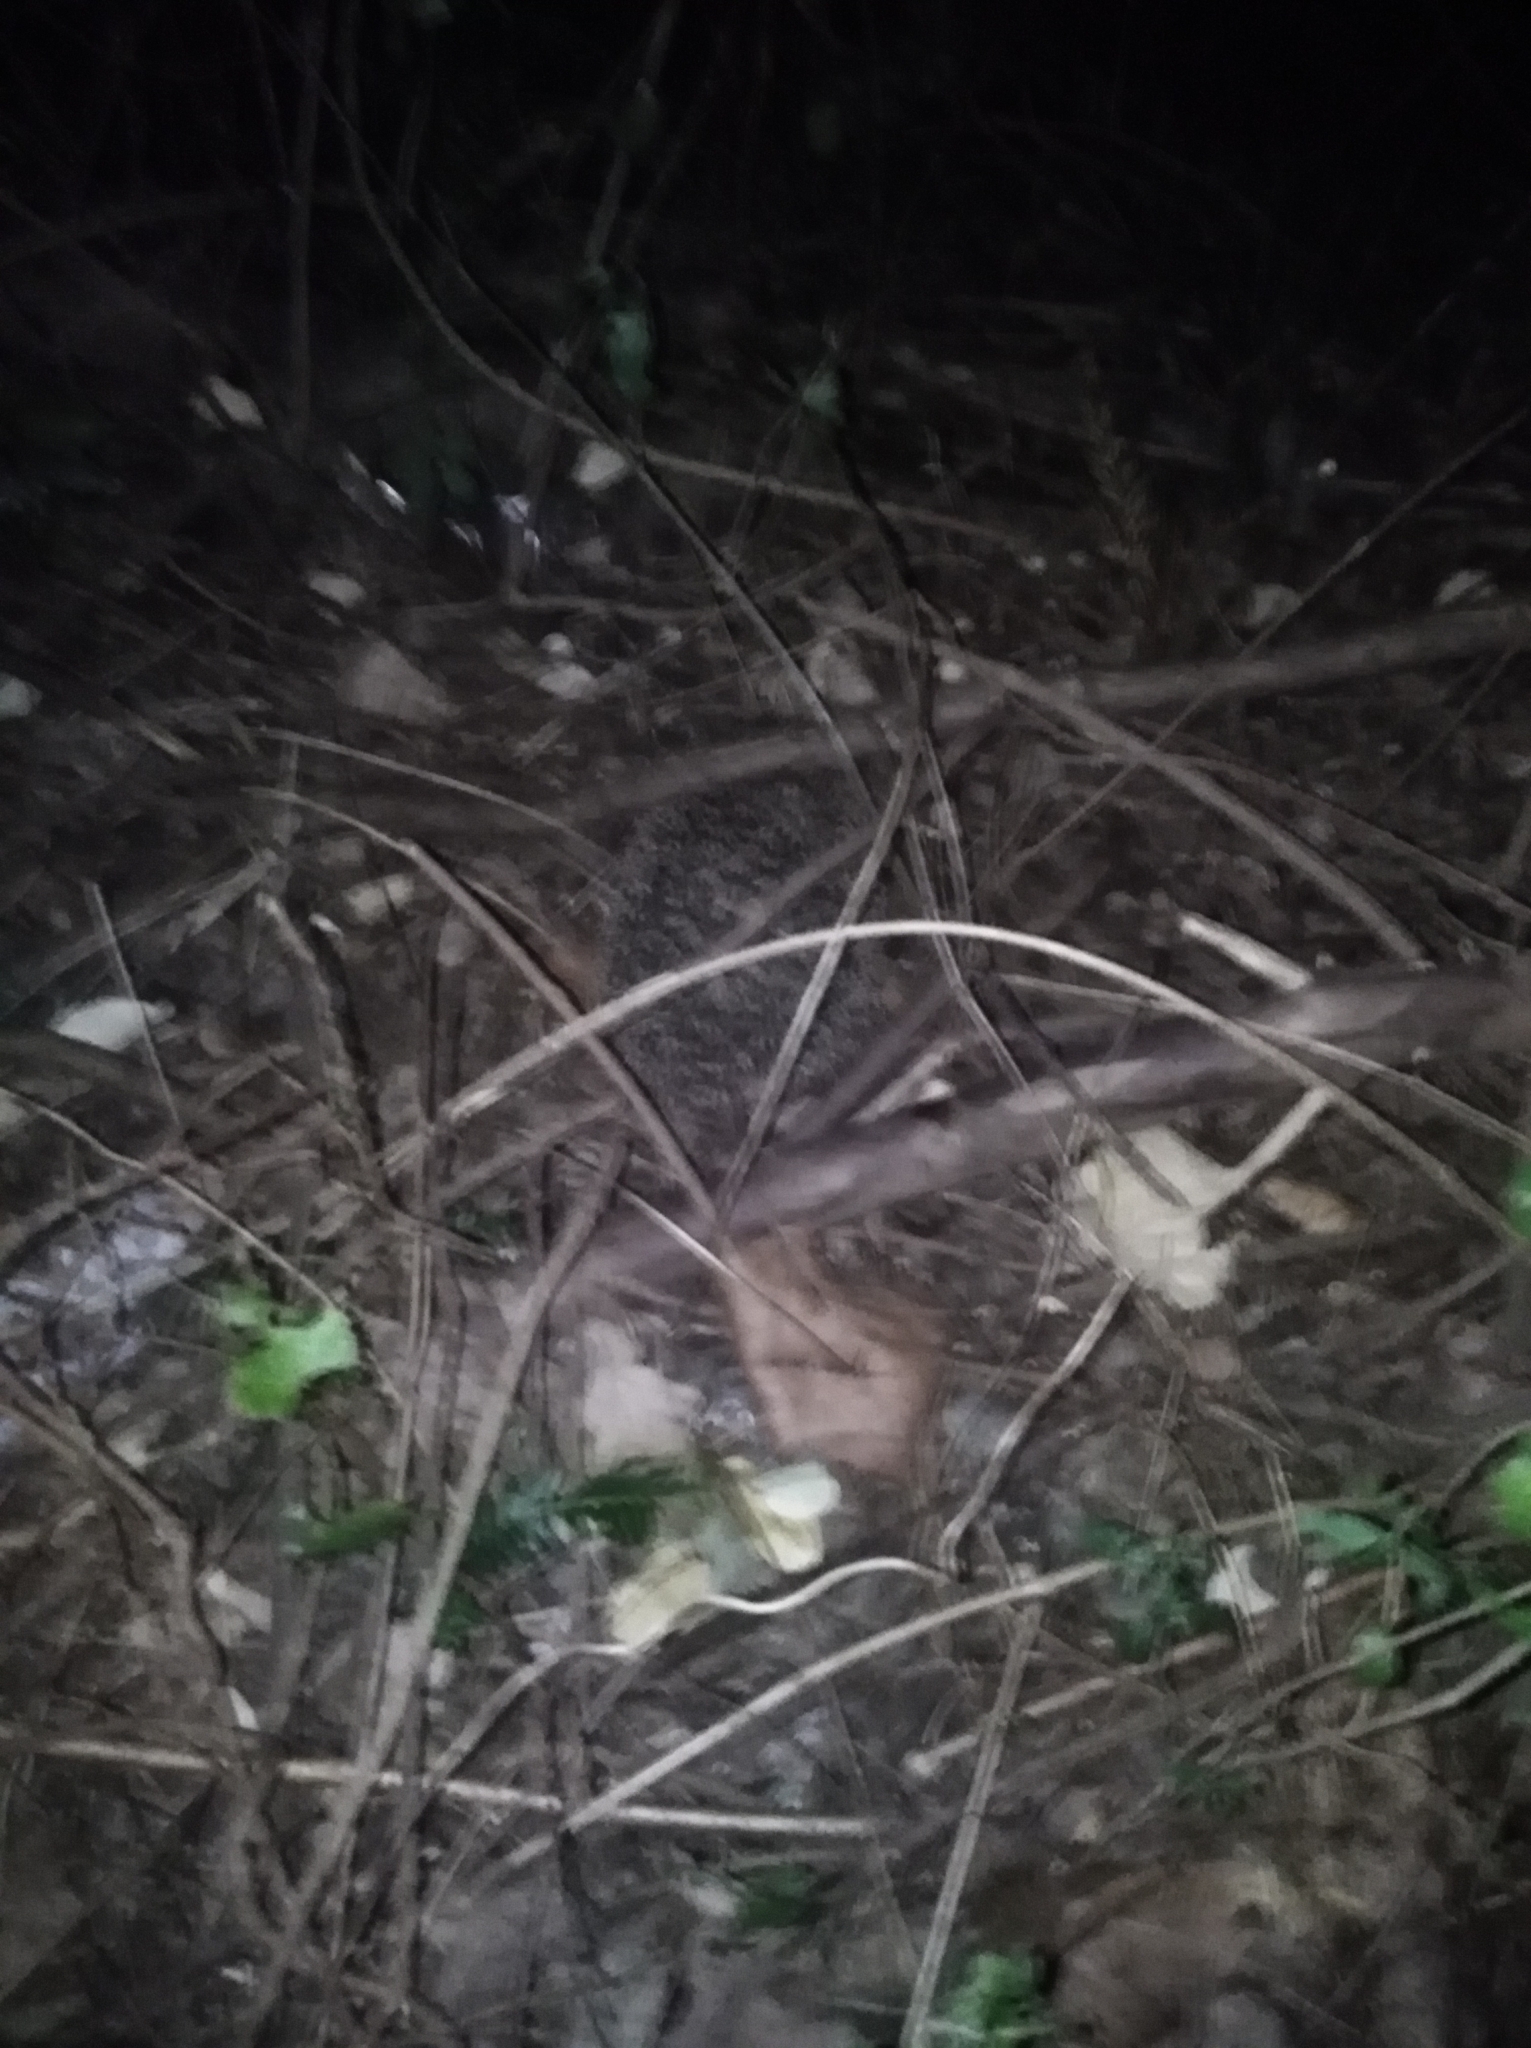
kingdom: Animalia
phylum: Chordata
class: Mammalia
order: Erinaceomorpha
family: Erinaceidae
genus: Erinaceus
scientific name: Erinaceus europaeus
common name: West european hedgehog
